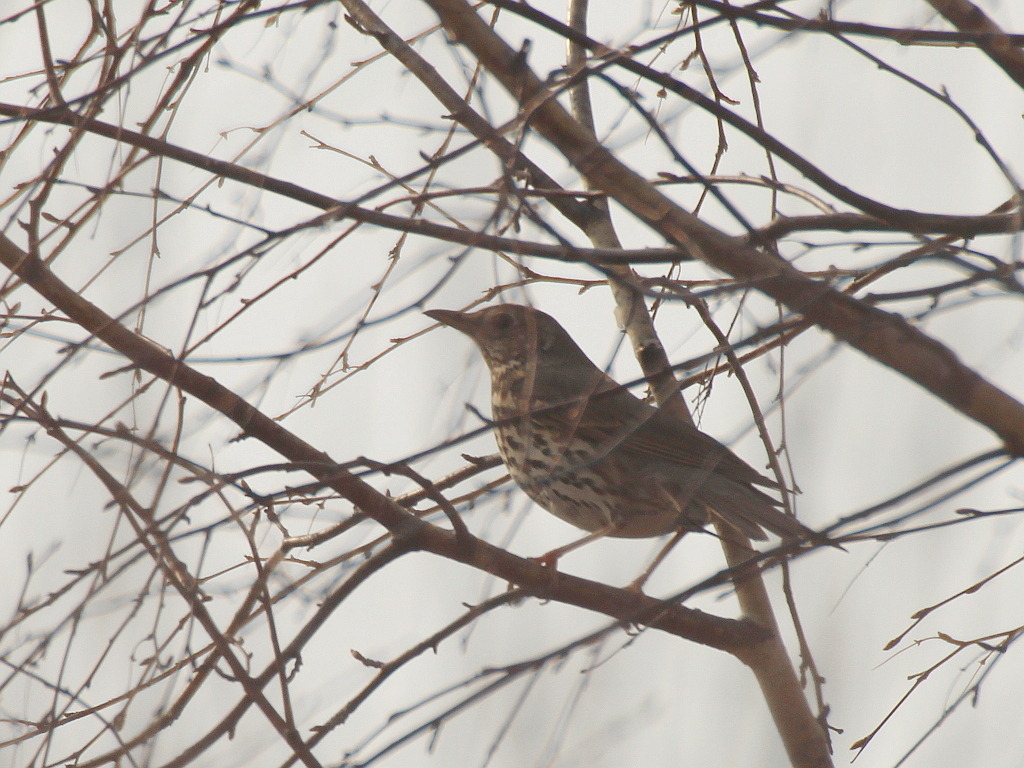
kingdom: Animalia
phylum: Chordata
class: Aves
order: Passeriformes
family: Turdidae
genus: Turdus
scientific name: Turdus philomelos
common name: Song thrush
